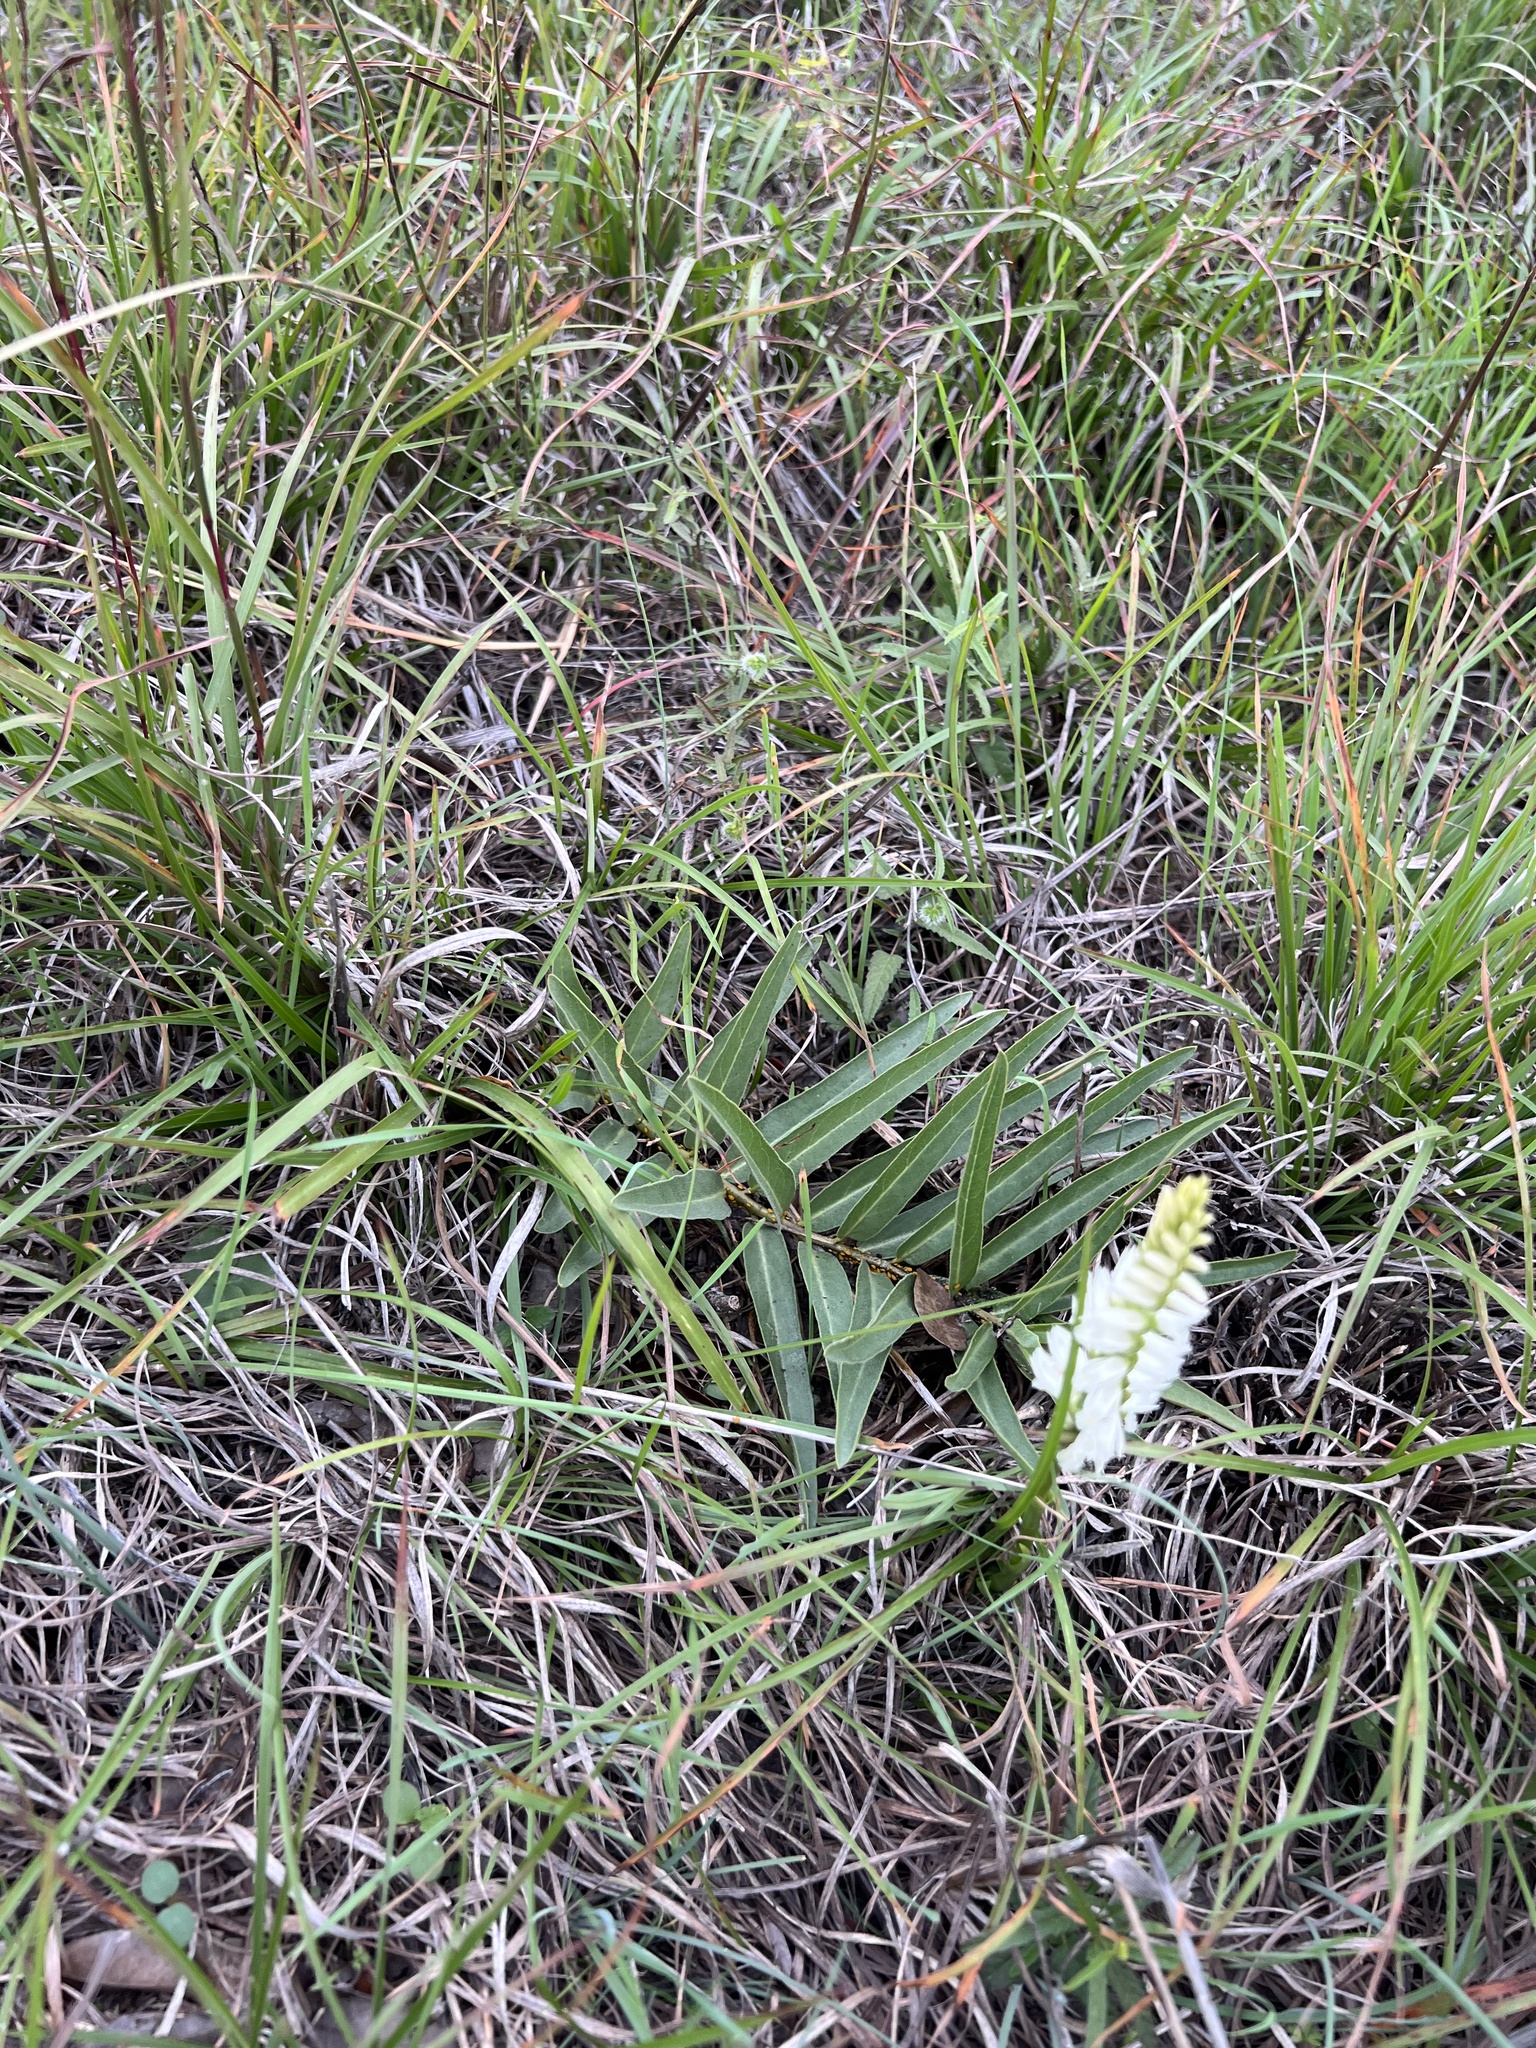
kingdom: Plantae
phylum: Tracheophyta
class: Magnoliopsida
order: Gentianales
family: Apocynaceae
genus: Asclepias
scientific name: Asclepias asperula
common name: Antelope horns
